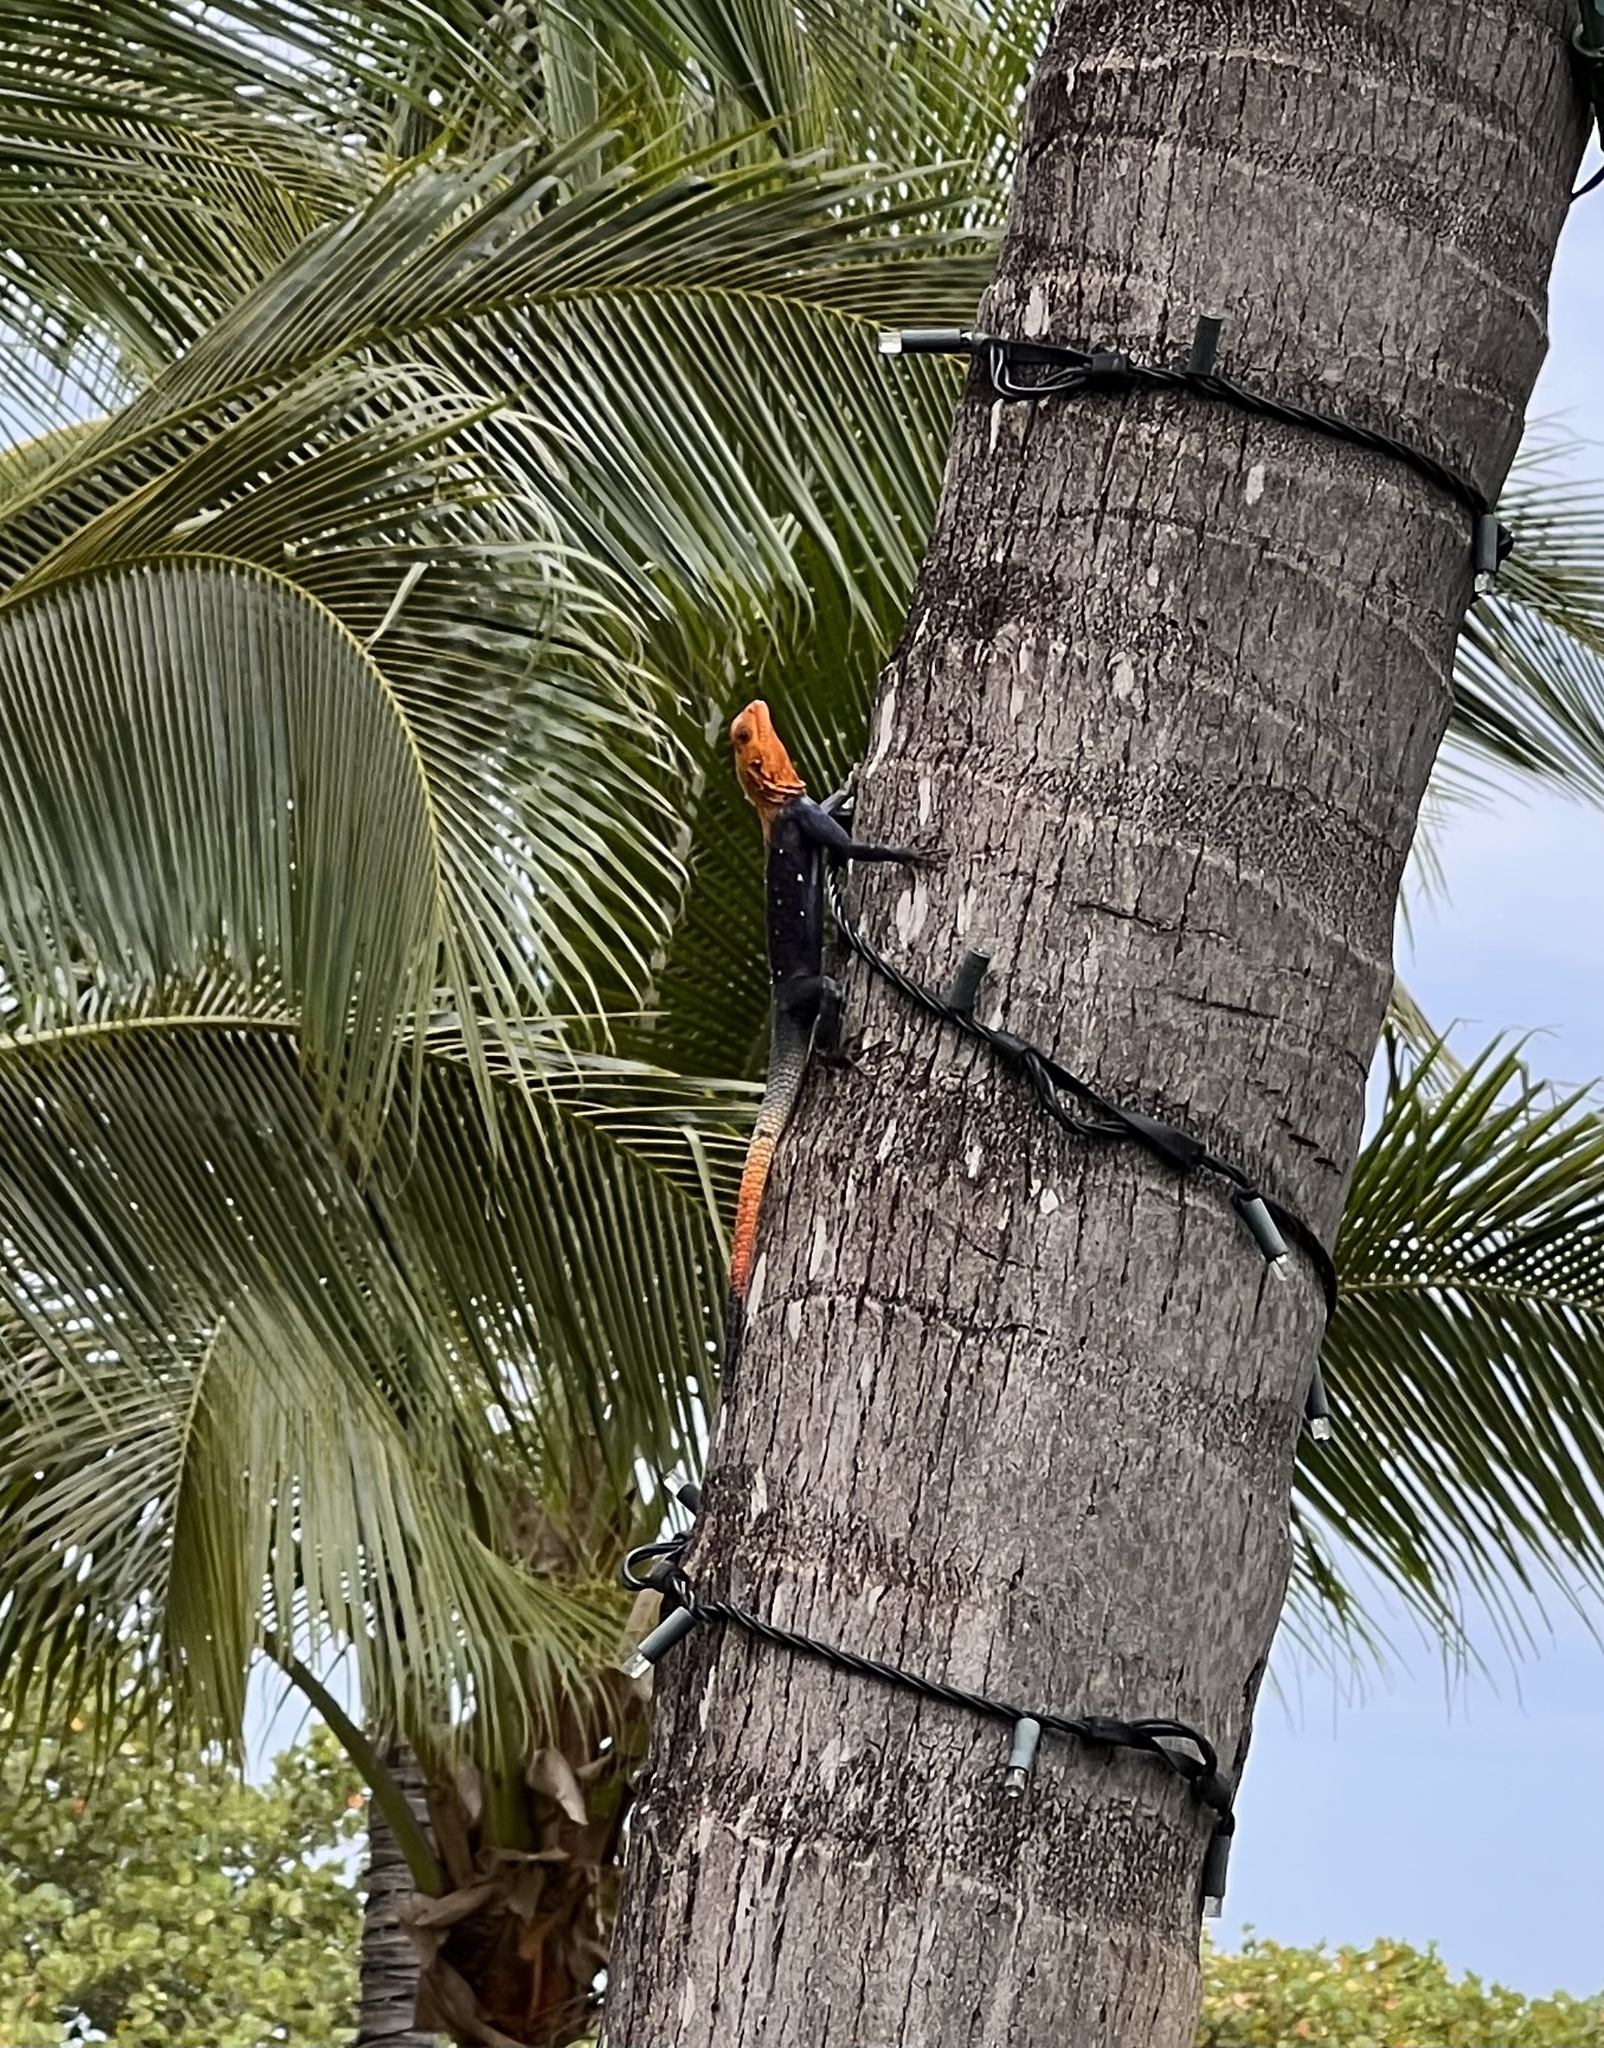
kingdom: Animalia
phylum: Chordata
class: Squamata
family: Agamidae
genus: Agama
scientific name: Agama picticauda
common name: Red-headed agama
